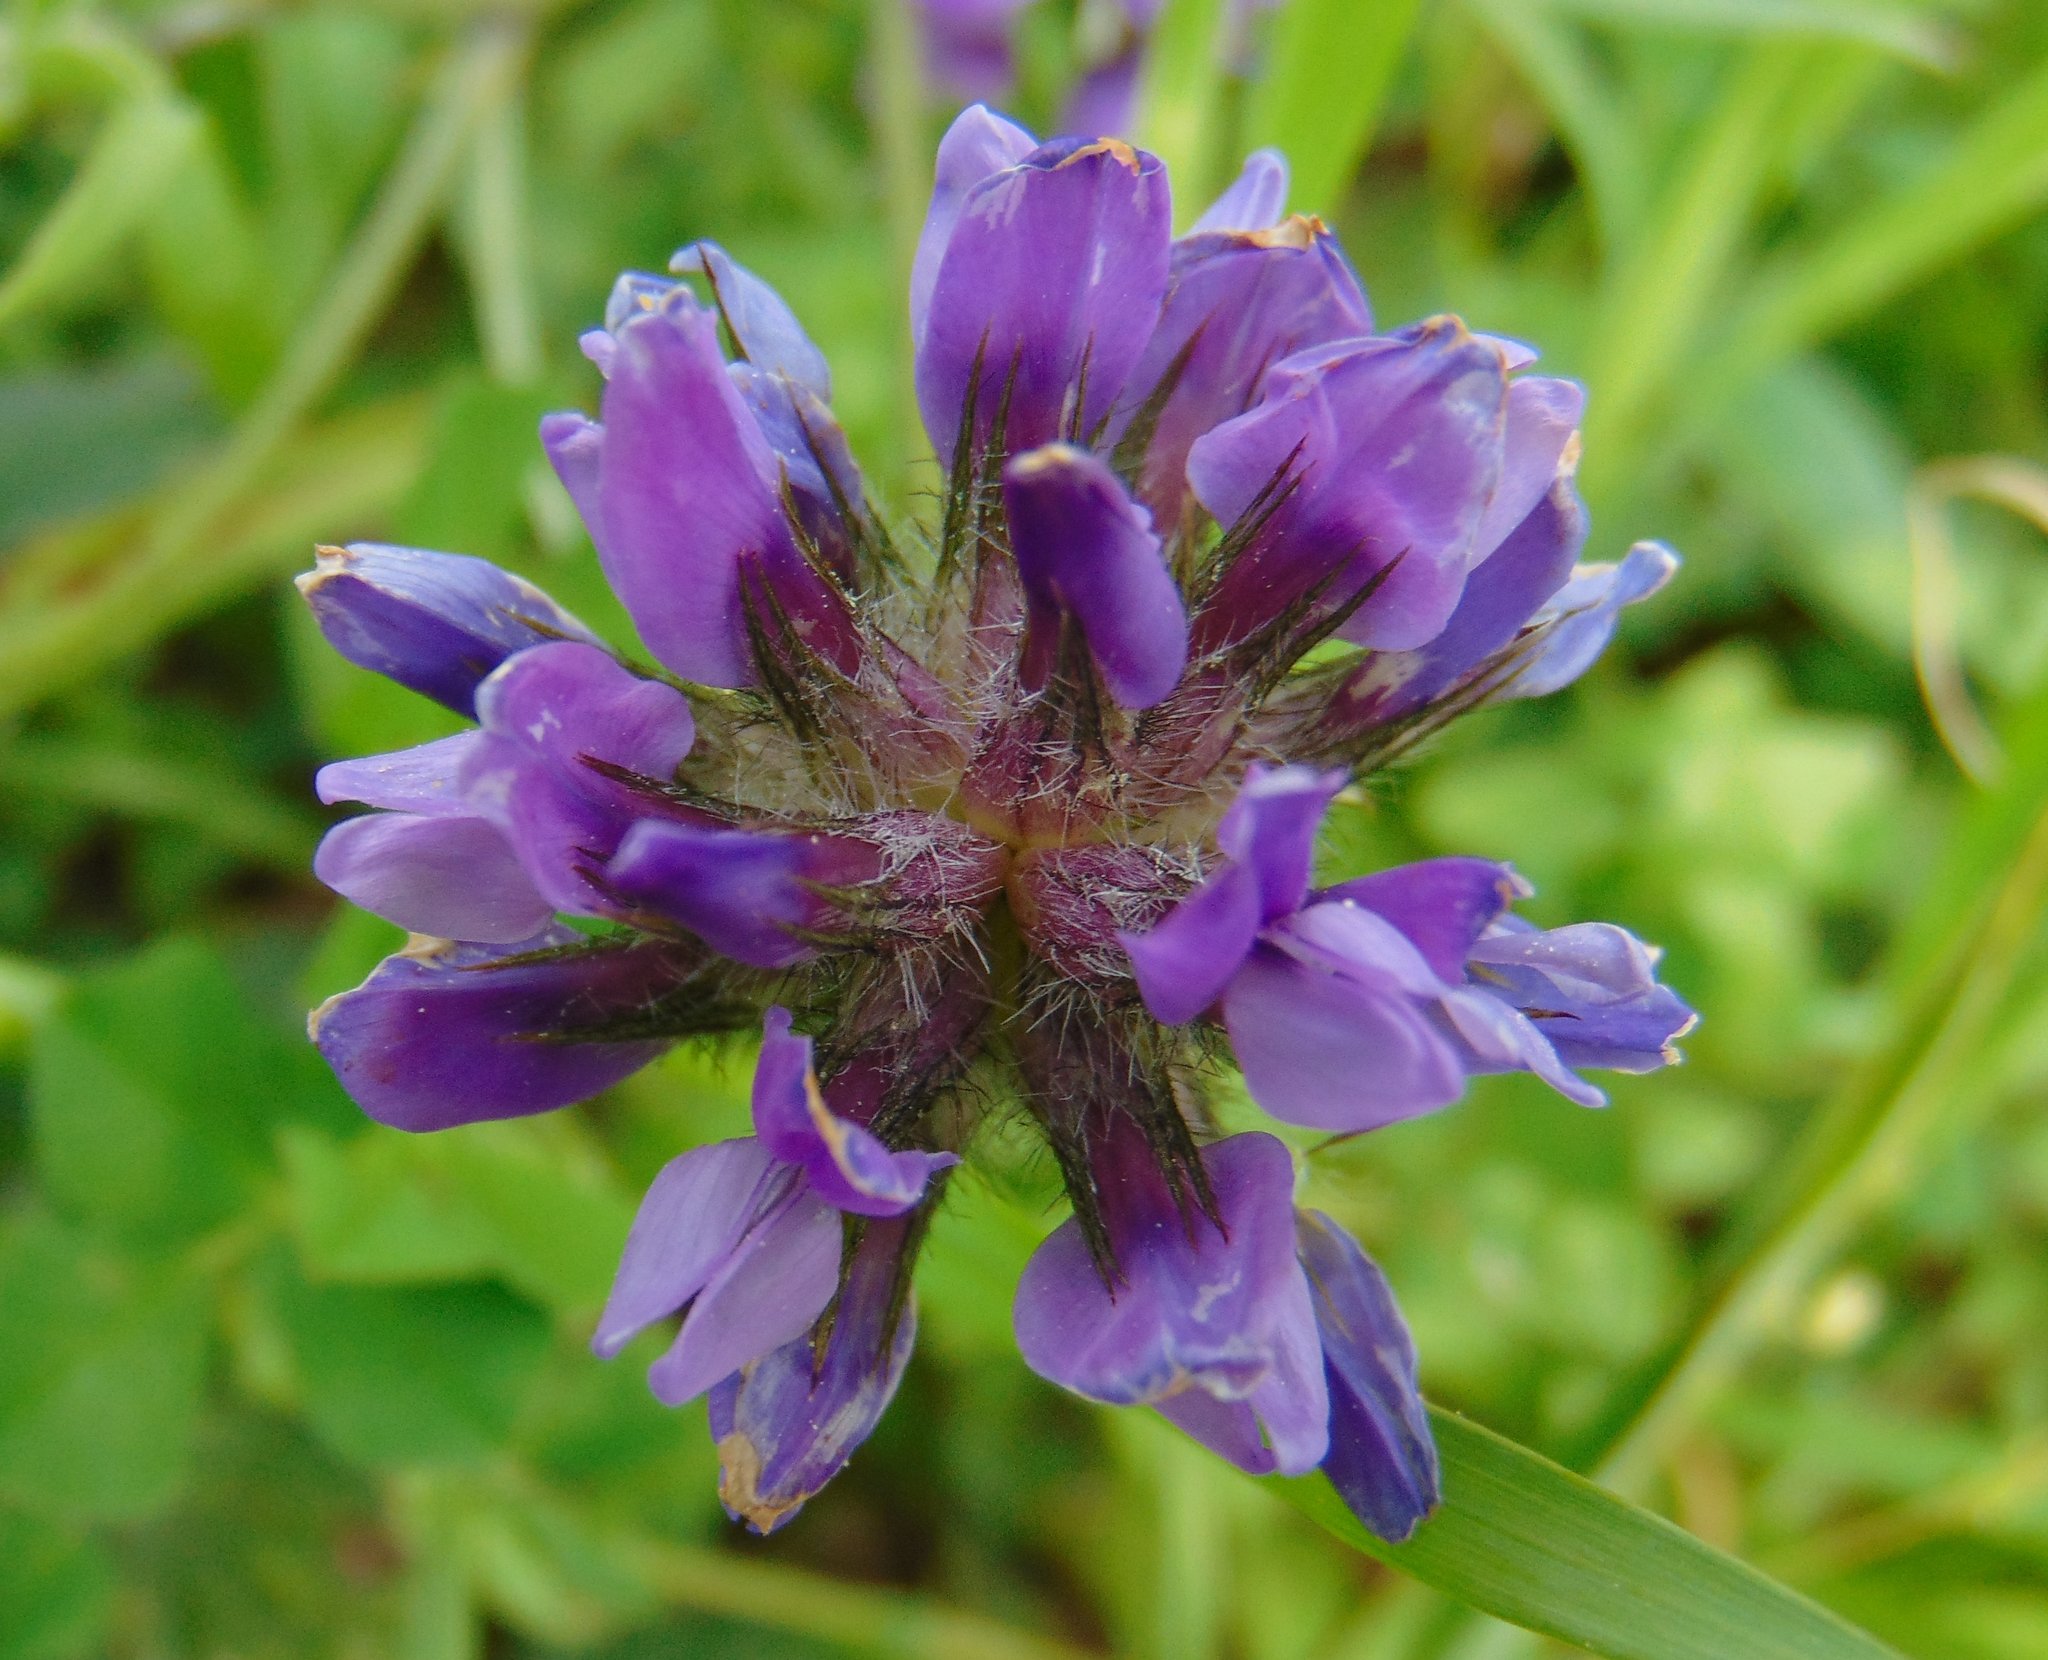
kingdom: Plantae
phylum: Tracheophyta
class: Magnoliopsida
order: Fabales
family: Fabaceae
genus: Bituminaria
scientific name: Bituminaria bituminosa
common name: Arabian pea
